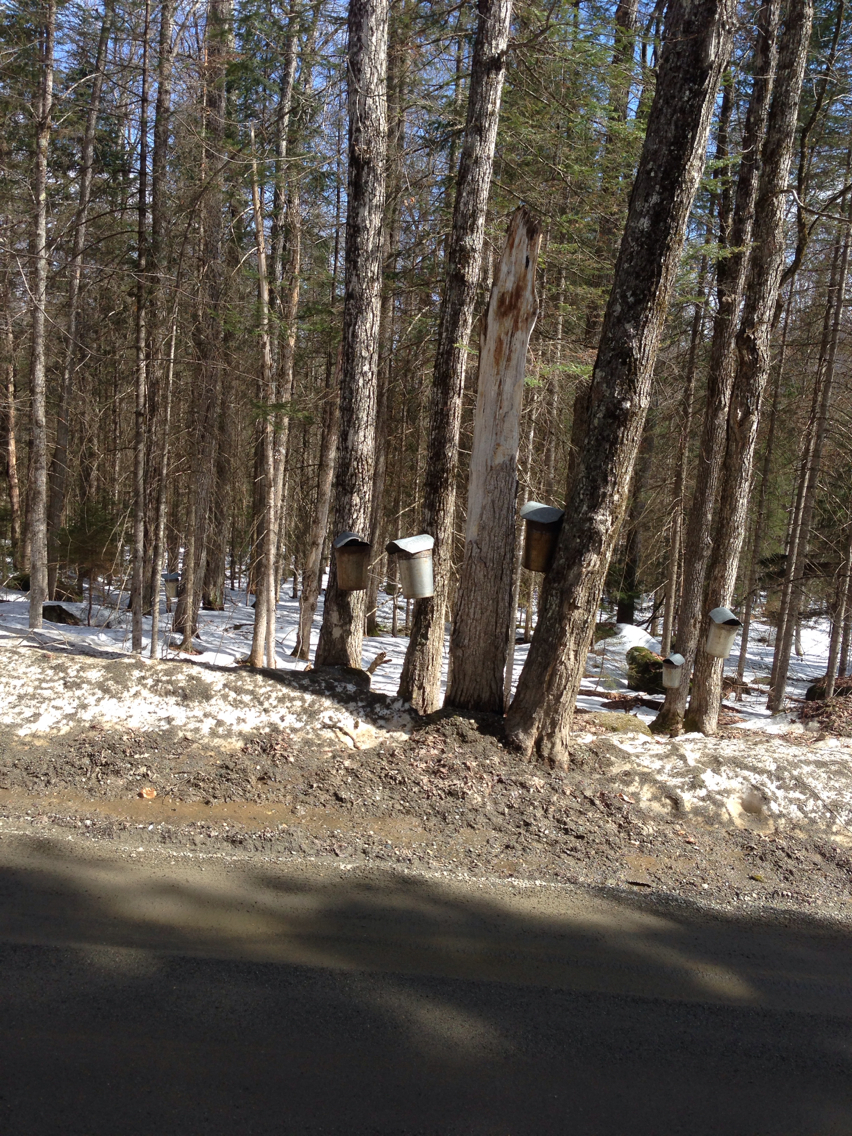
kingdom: Plantae
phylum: Tracheophyta
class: Magnoliopsida
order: Sapindales
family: Sapindaceae
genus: Acer
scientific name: Acer saccharum
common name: Sugar maple
